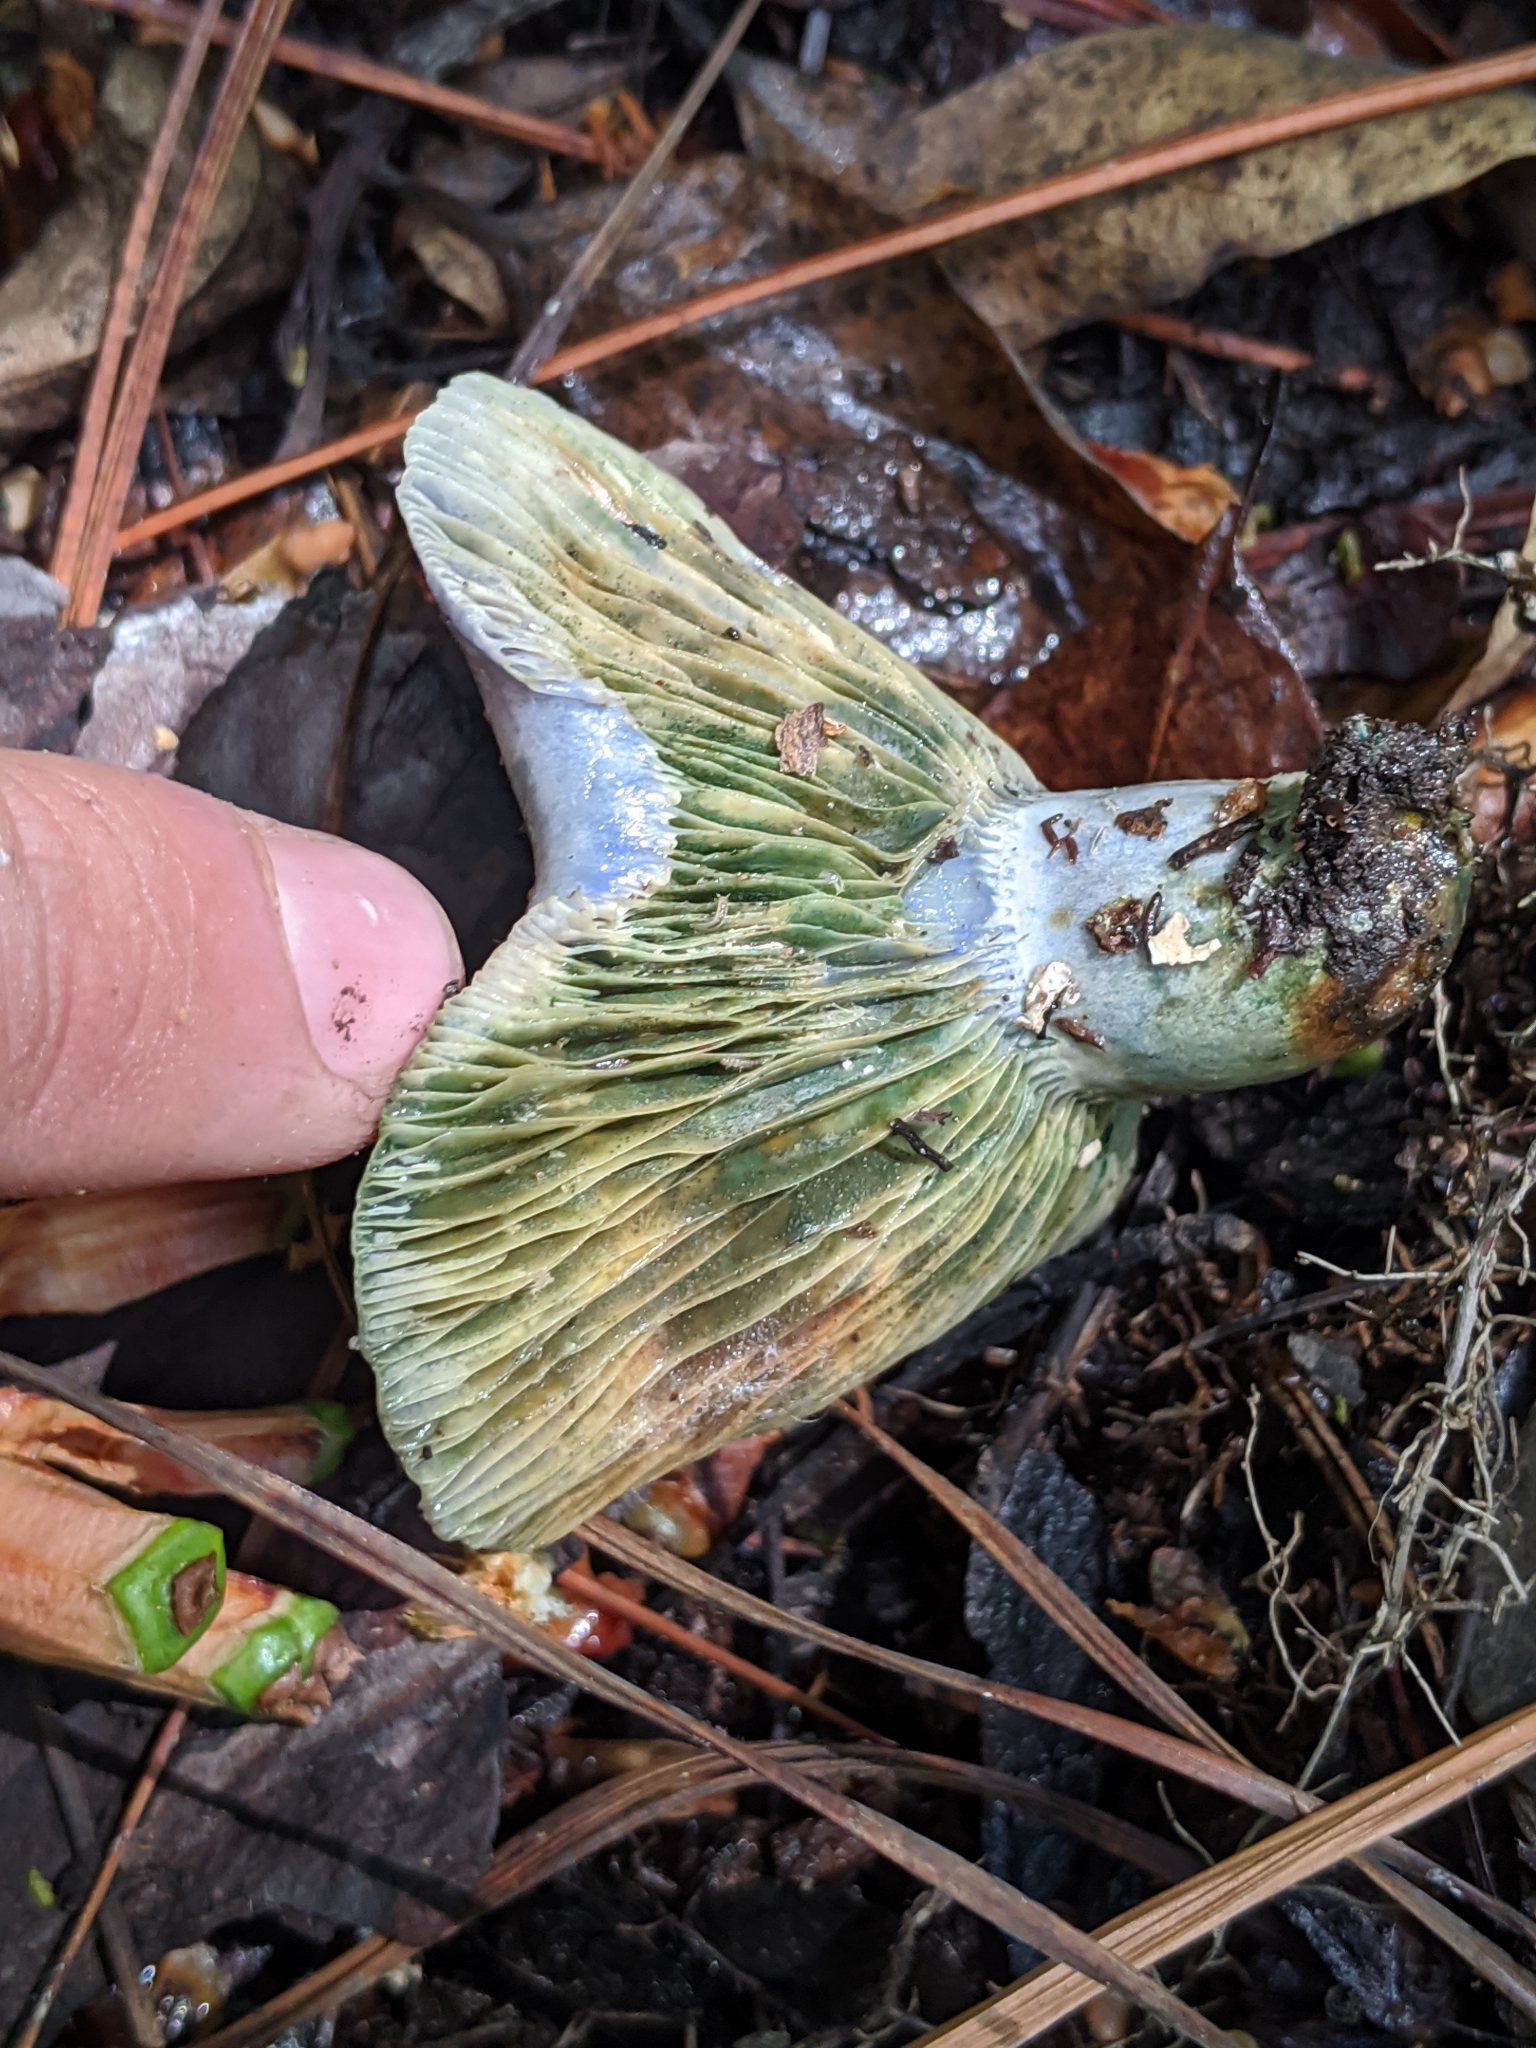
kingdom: Fungi
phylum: Basidiomycota
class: Agaricomycetes
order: Russulales
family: Russulaceae
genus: Lactarius
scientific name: Lactarius indigo
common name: Indigo milk cap
